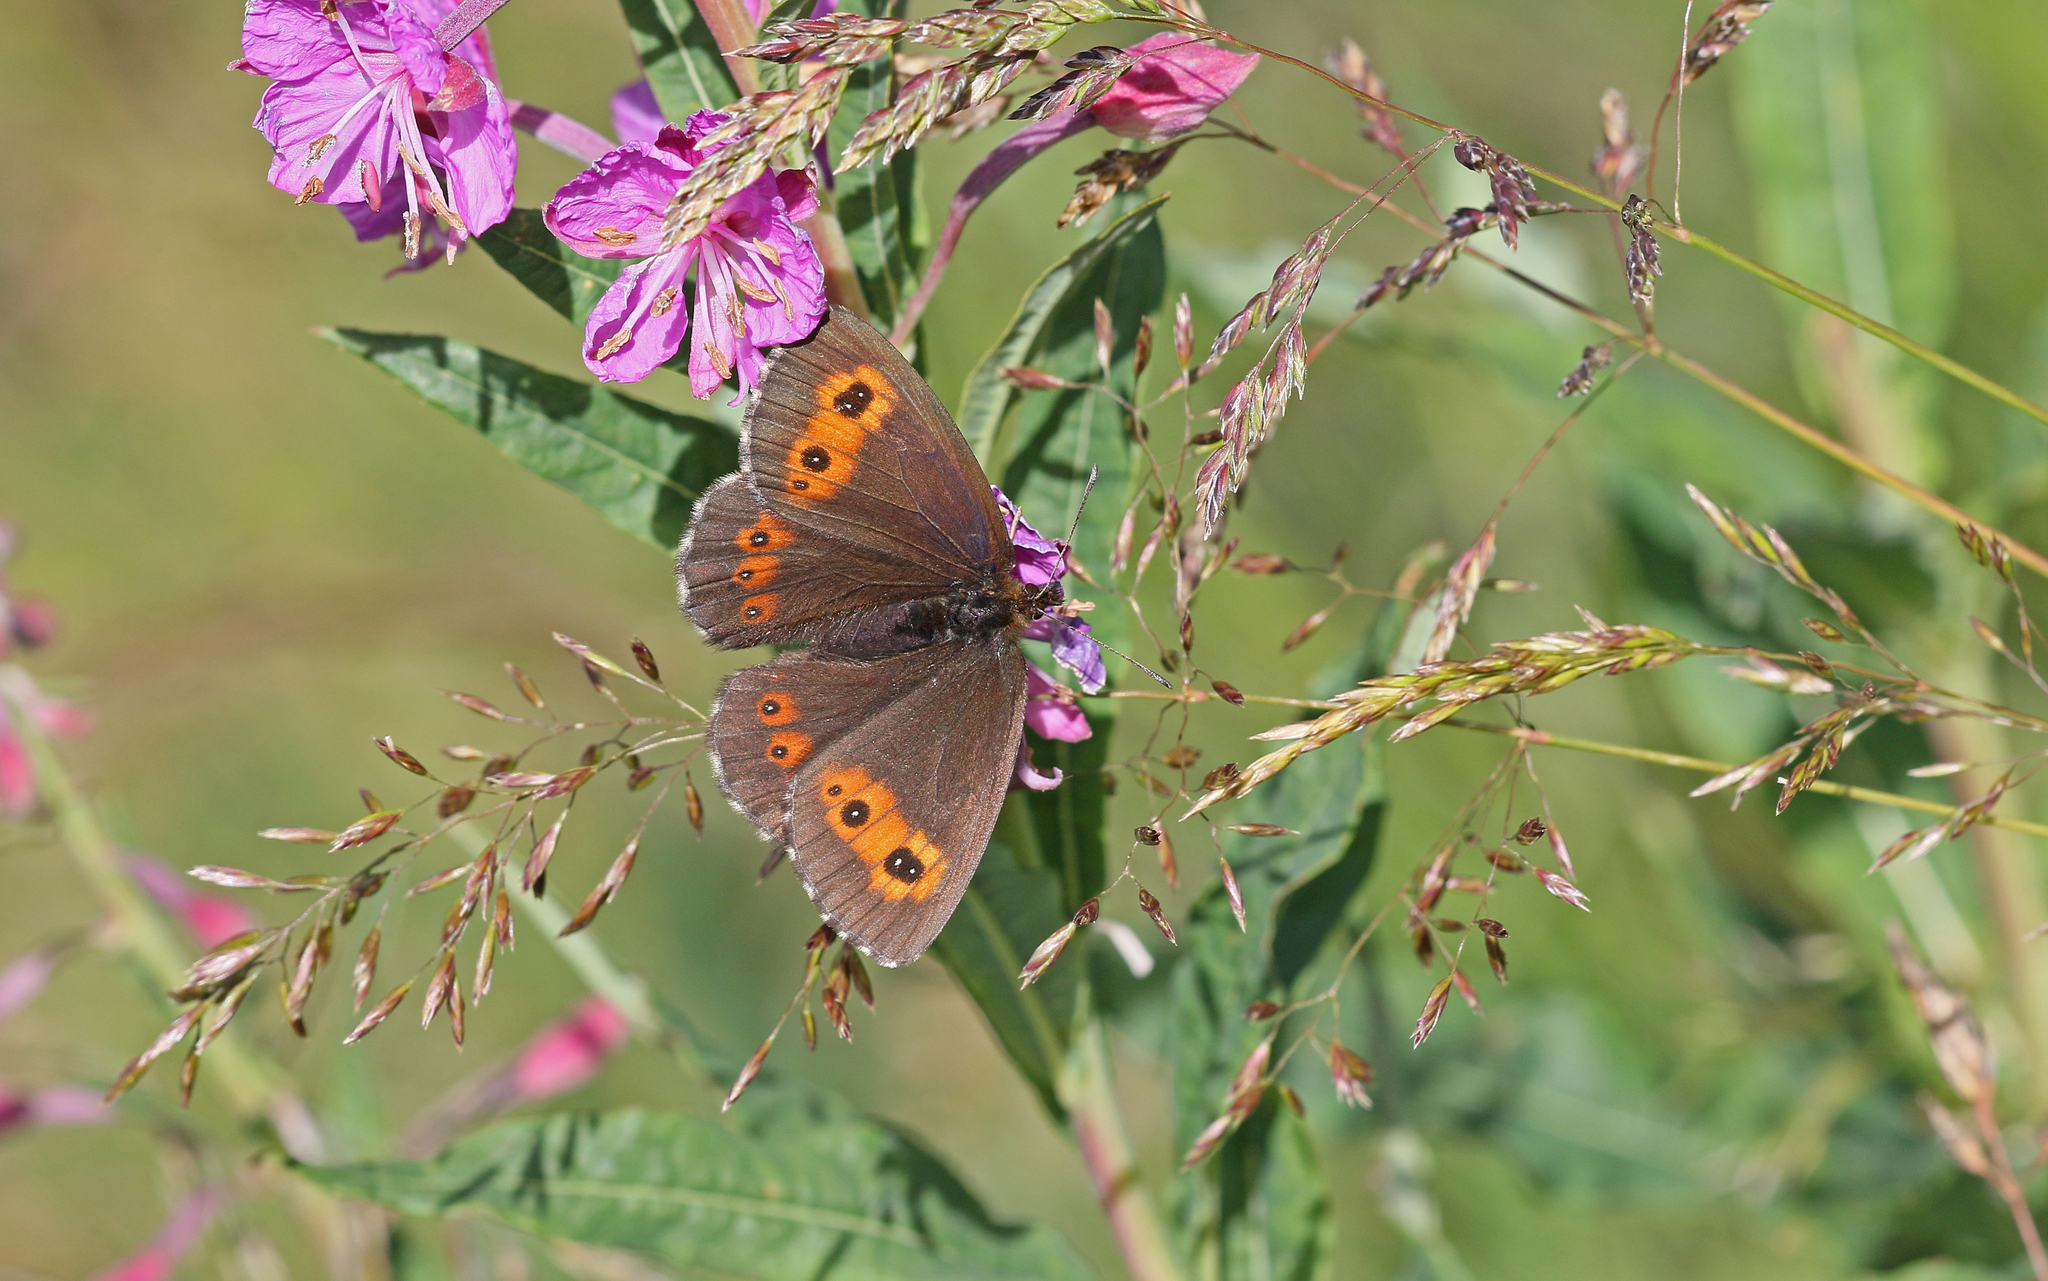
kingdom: Animalia
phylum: Arthropoda
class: Insecta
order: Lepidoptera
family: Nymphalidae
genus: Erebia
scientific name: Erebia euryale
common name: Large ringlet
